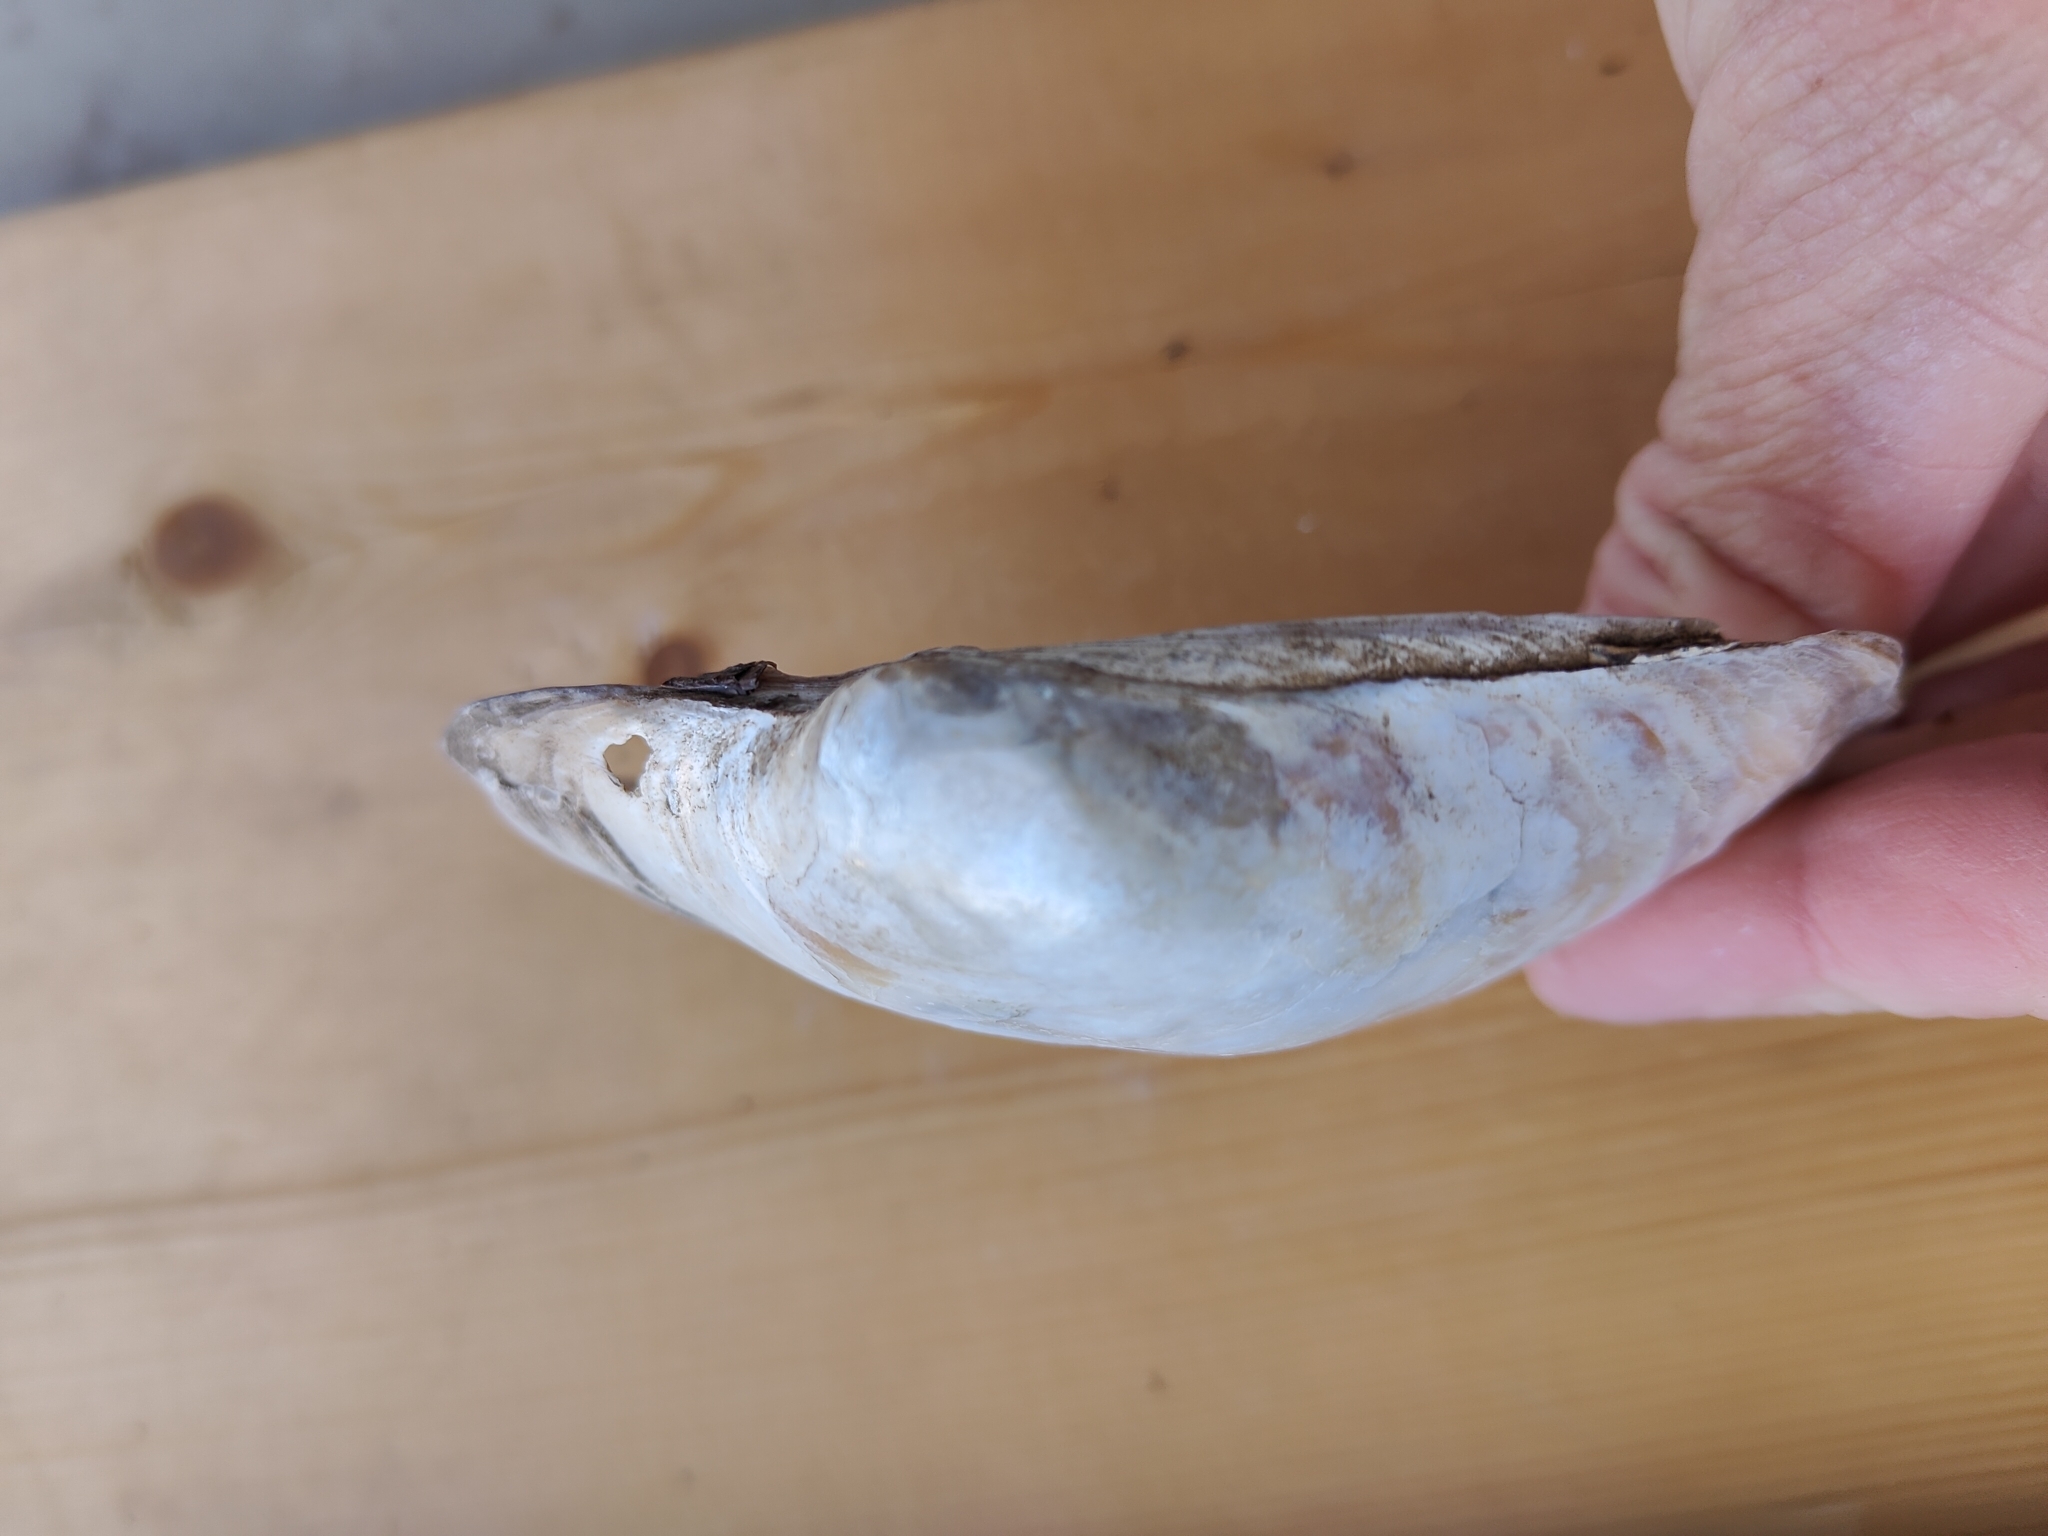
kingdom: Animalia
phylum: Mollusca
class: Bivalvia
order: Unionida
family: Unionidae
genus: Lampsilis
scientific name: Lampsilis cardium
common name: Plain pocketbook
